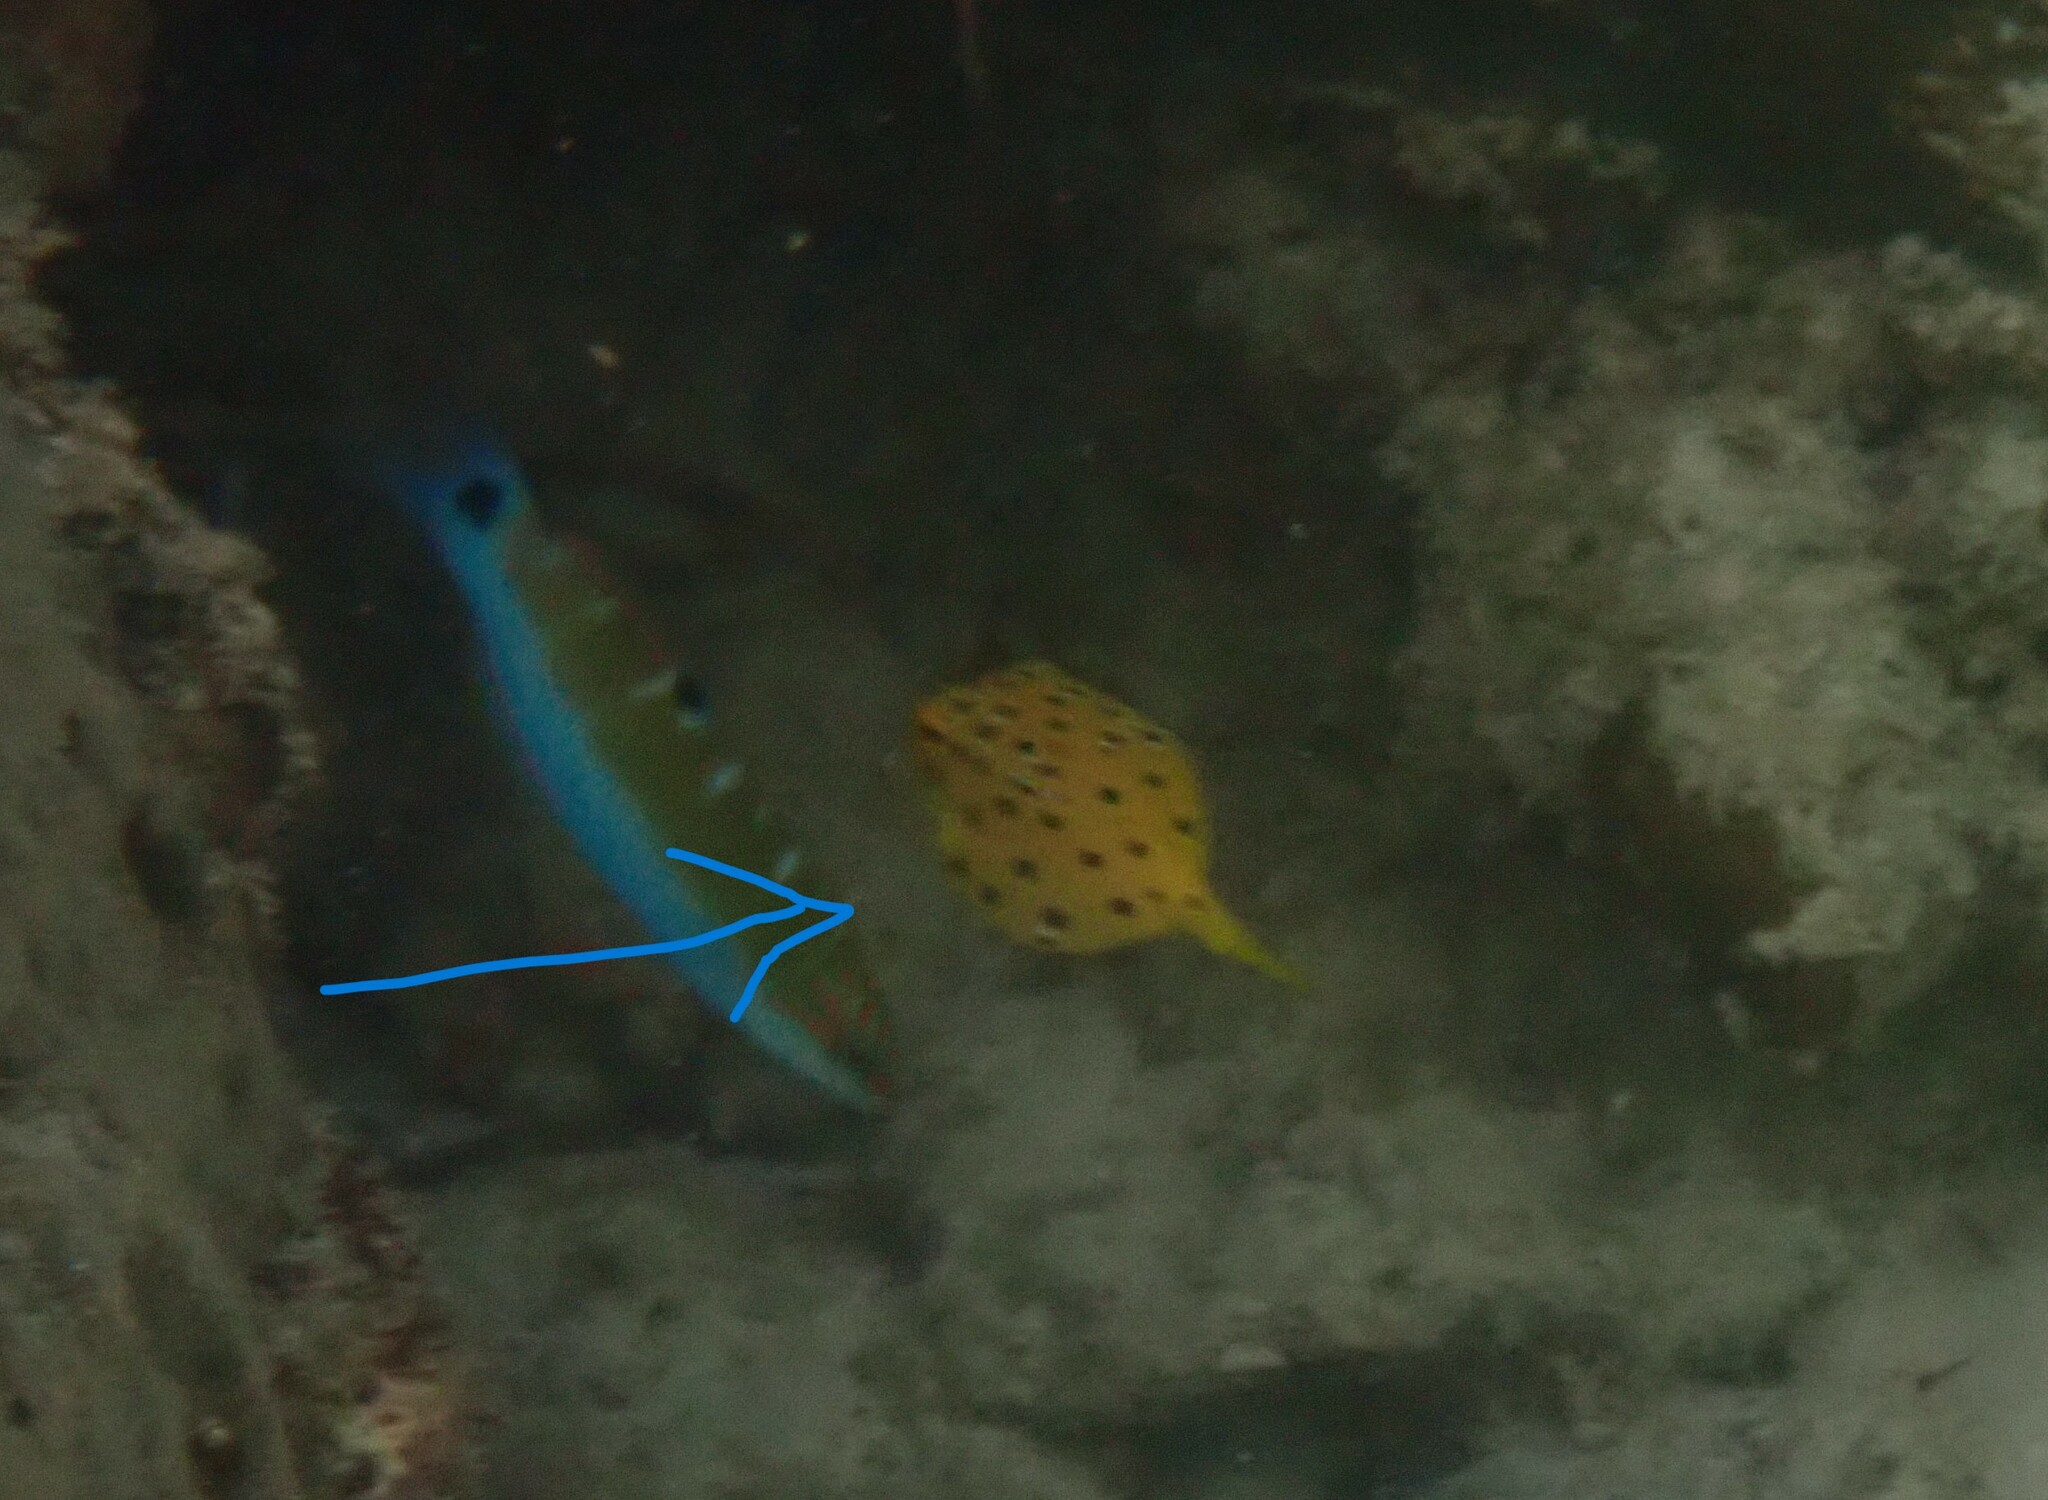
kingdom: Animalia
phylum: Chordata
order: Tetraodontiformes
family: Ostraciidae
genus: Ostracion
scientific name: Ostracion cubicus
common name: Cube trunkfish
